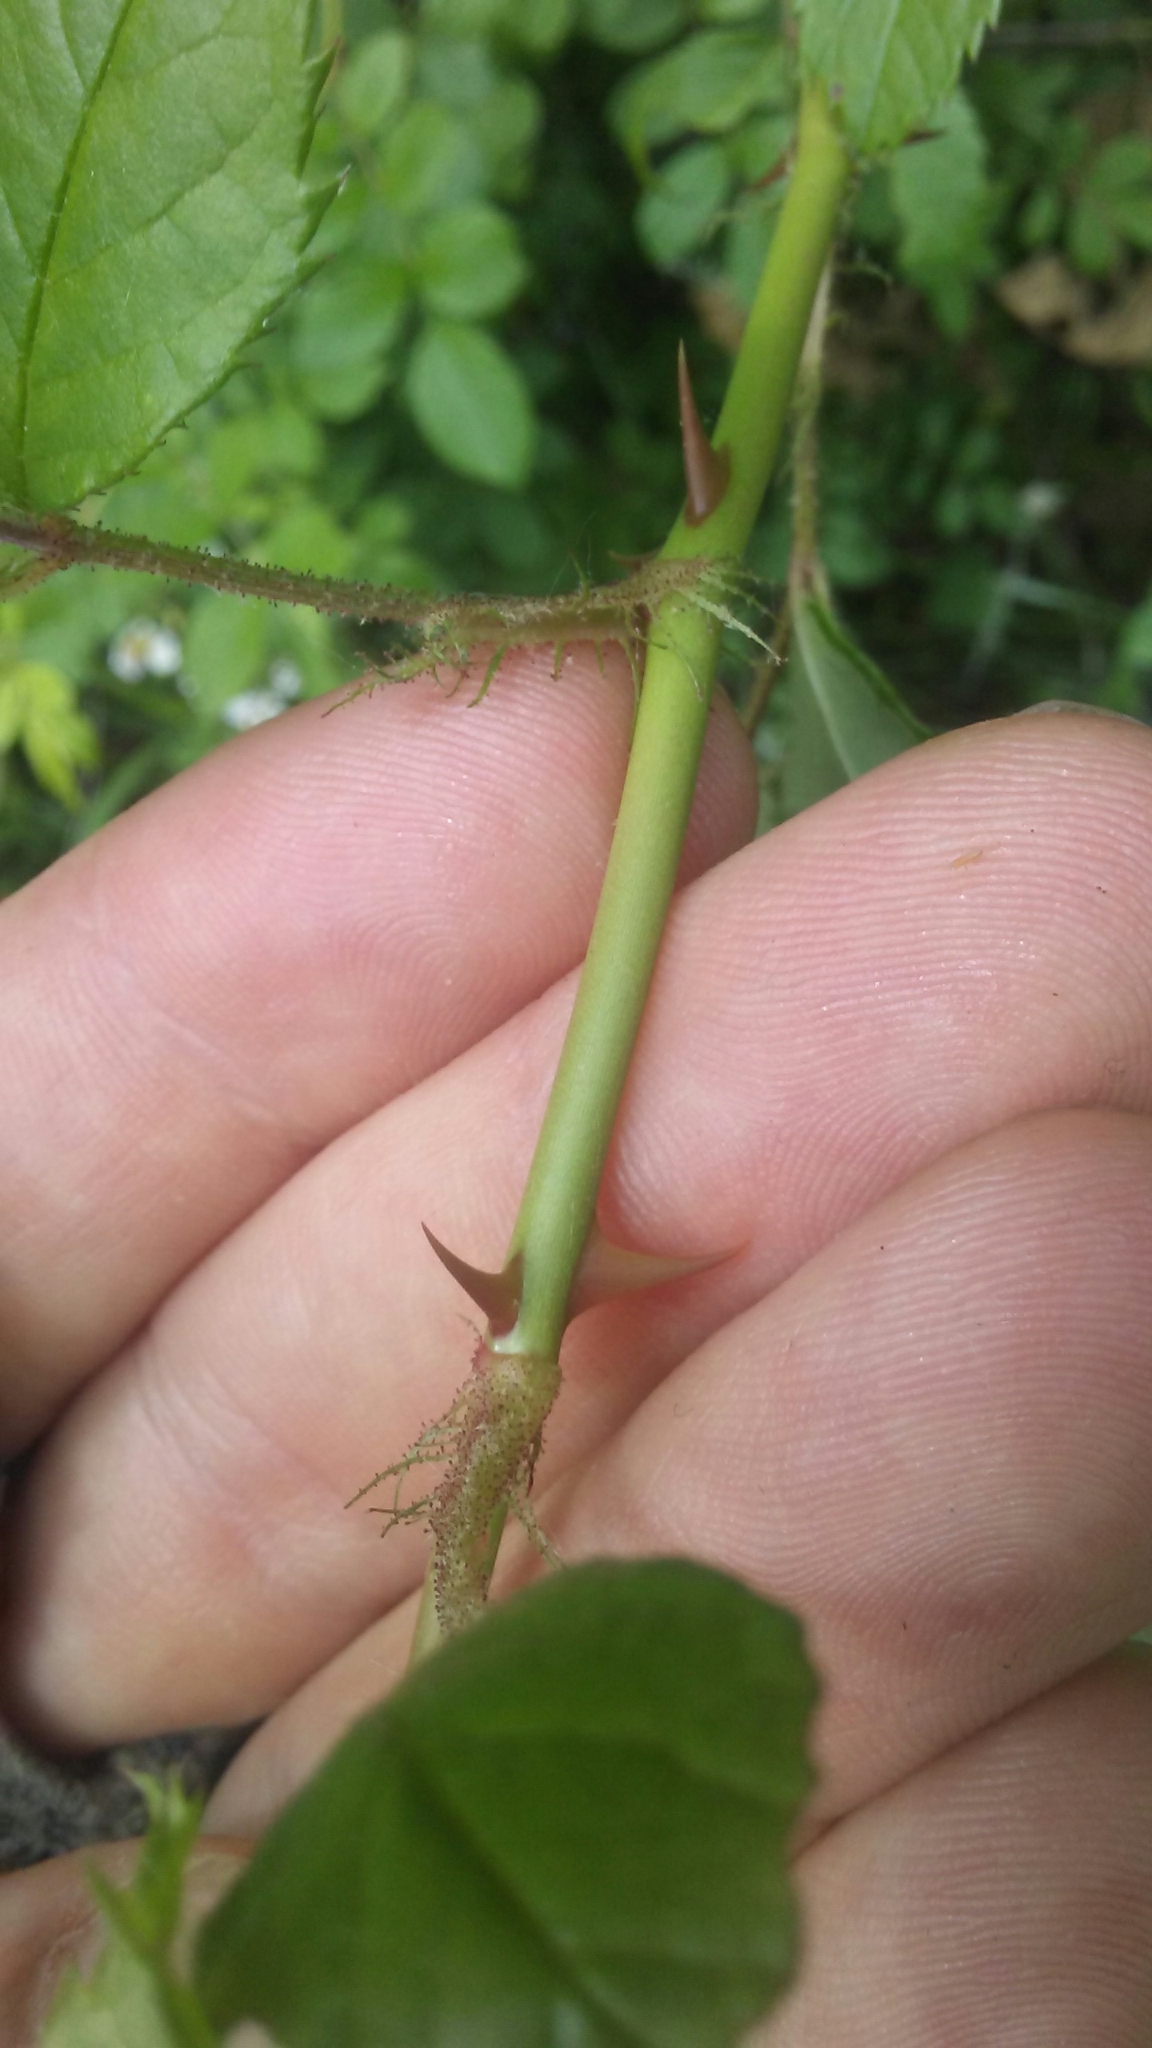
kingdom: Plantae
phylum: Tracheophyta
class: Magnoliopsida
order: Rosales
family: Rosaceae
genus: Rosa
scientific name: Rosa multiflora
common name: Multiflora rose
